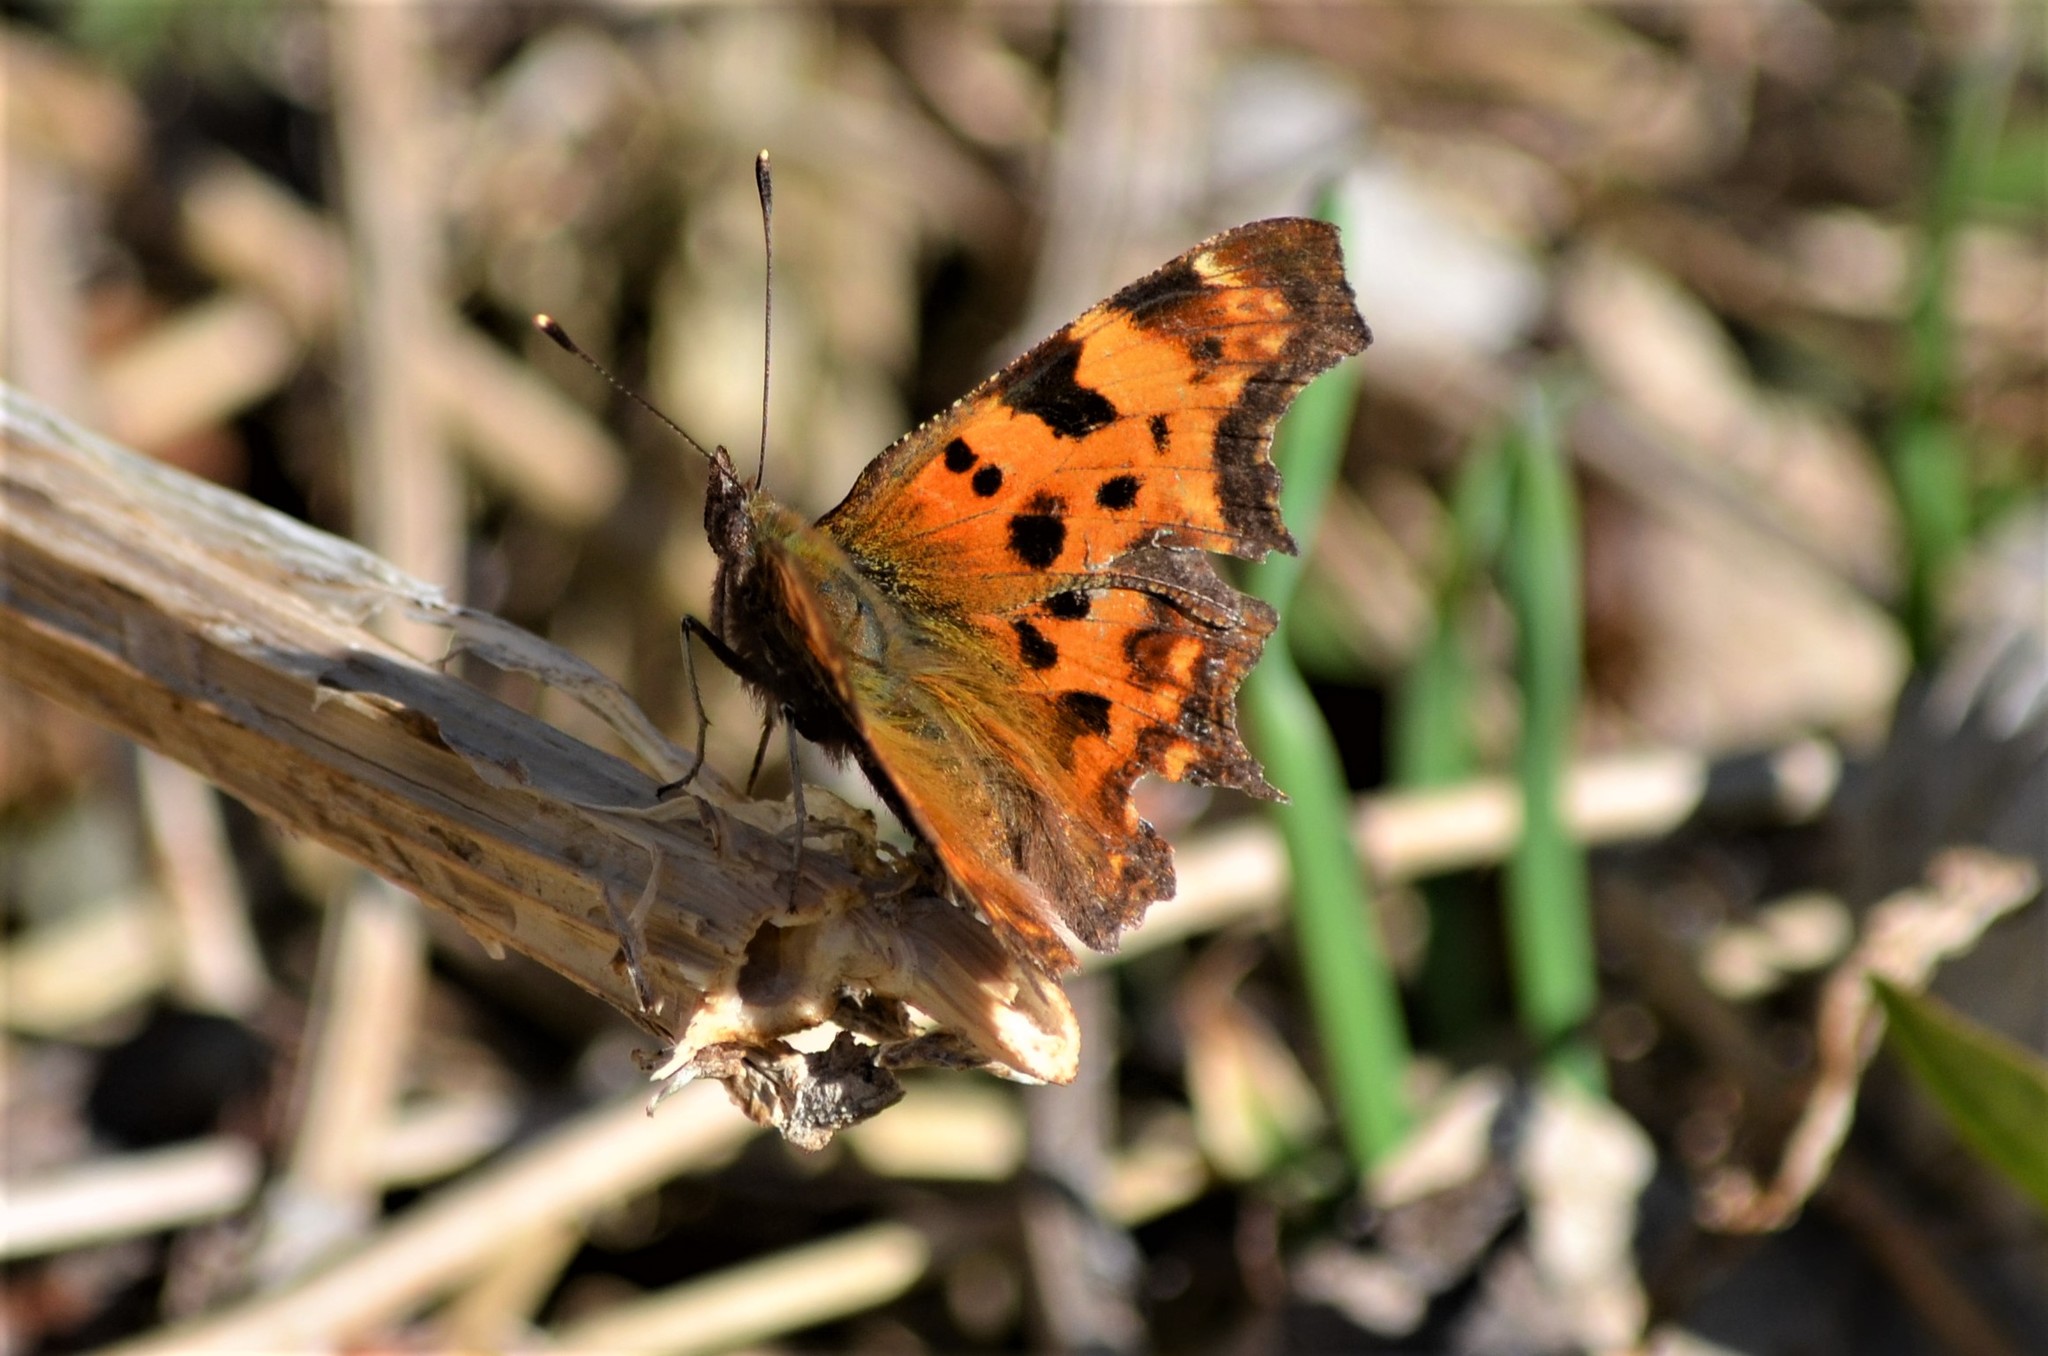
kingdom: Animalia
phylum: Arthropoda
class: Insecta
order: Lepidoptera
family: Nymphalidae
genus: Polygonia
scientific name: Polygonia c-album
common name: Comma
